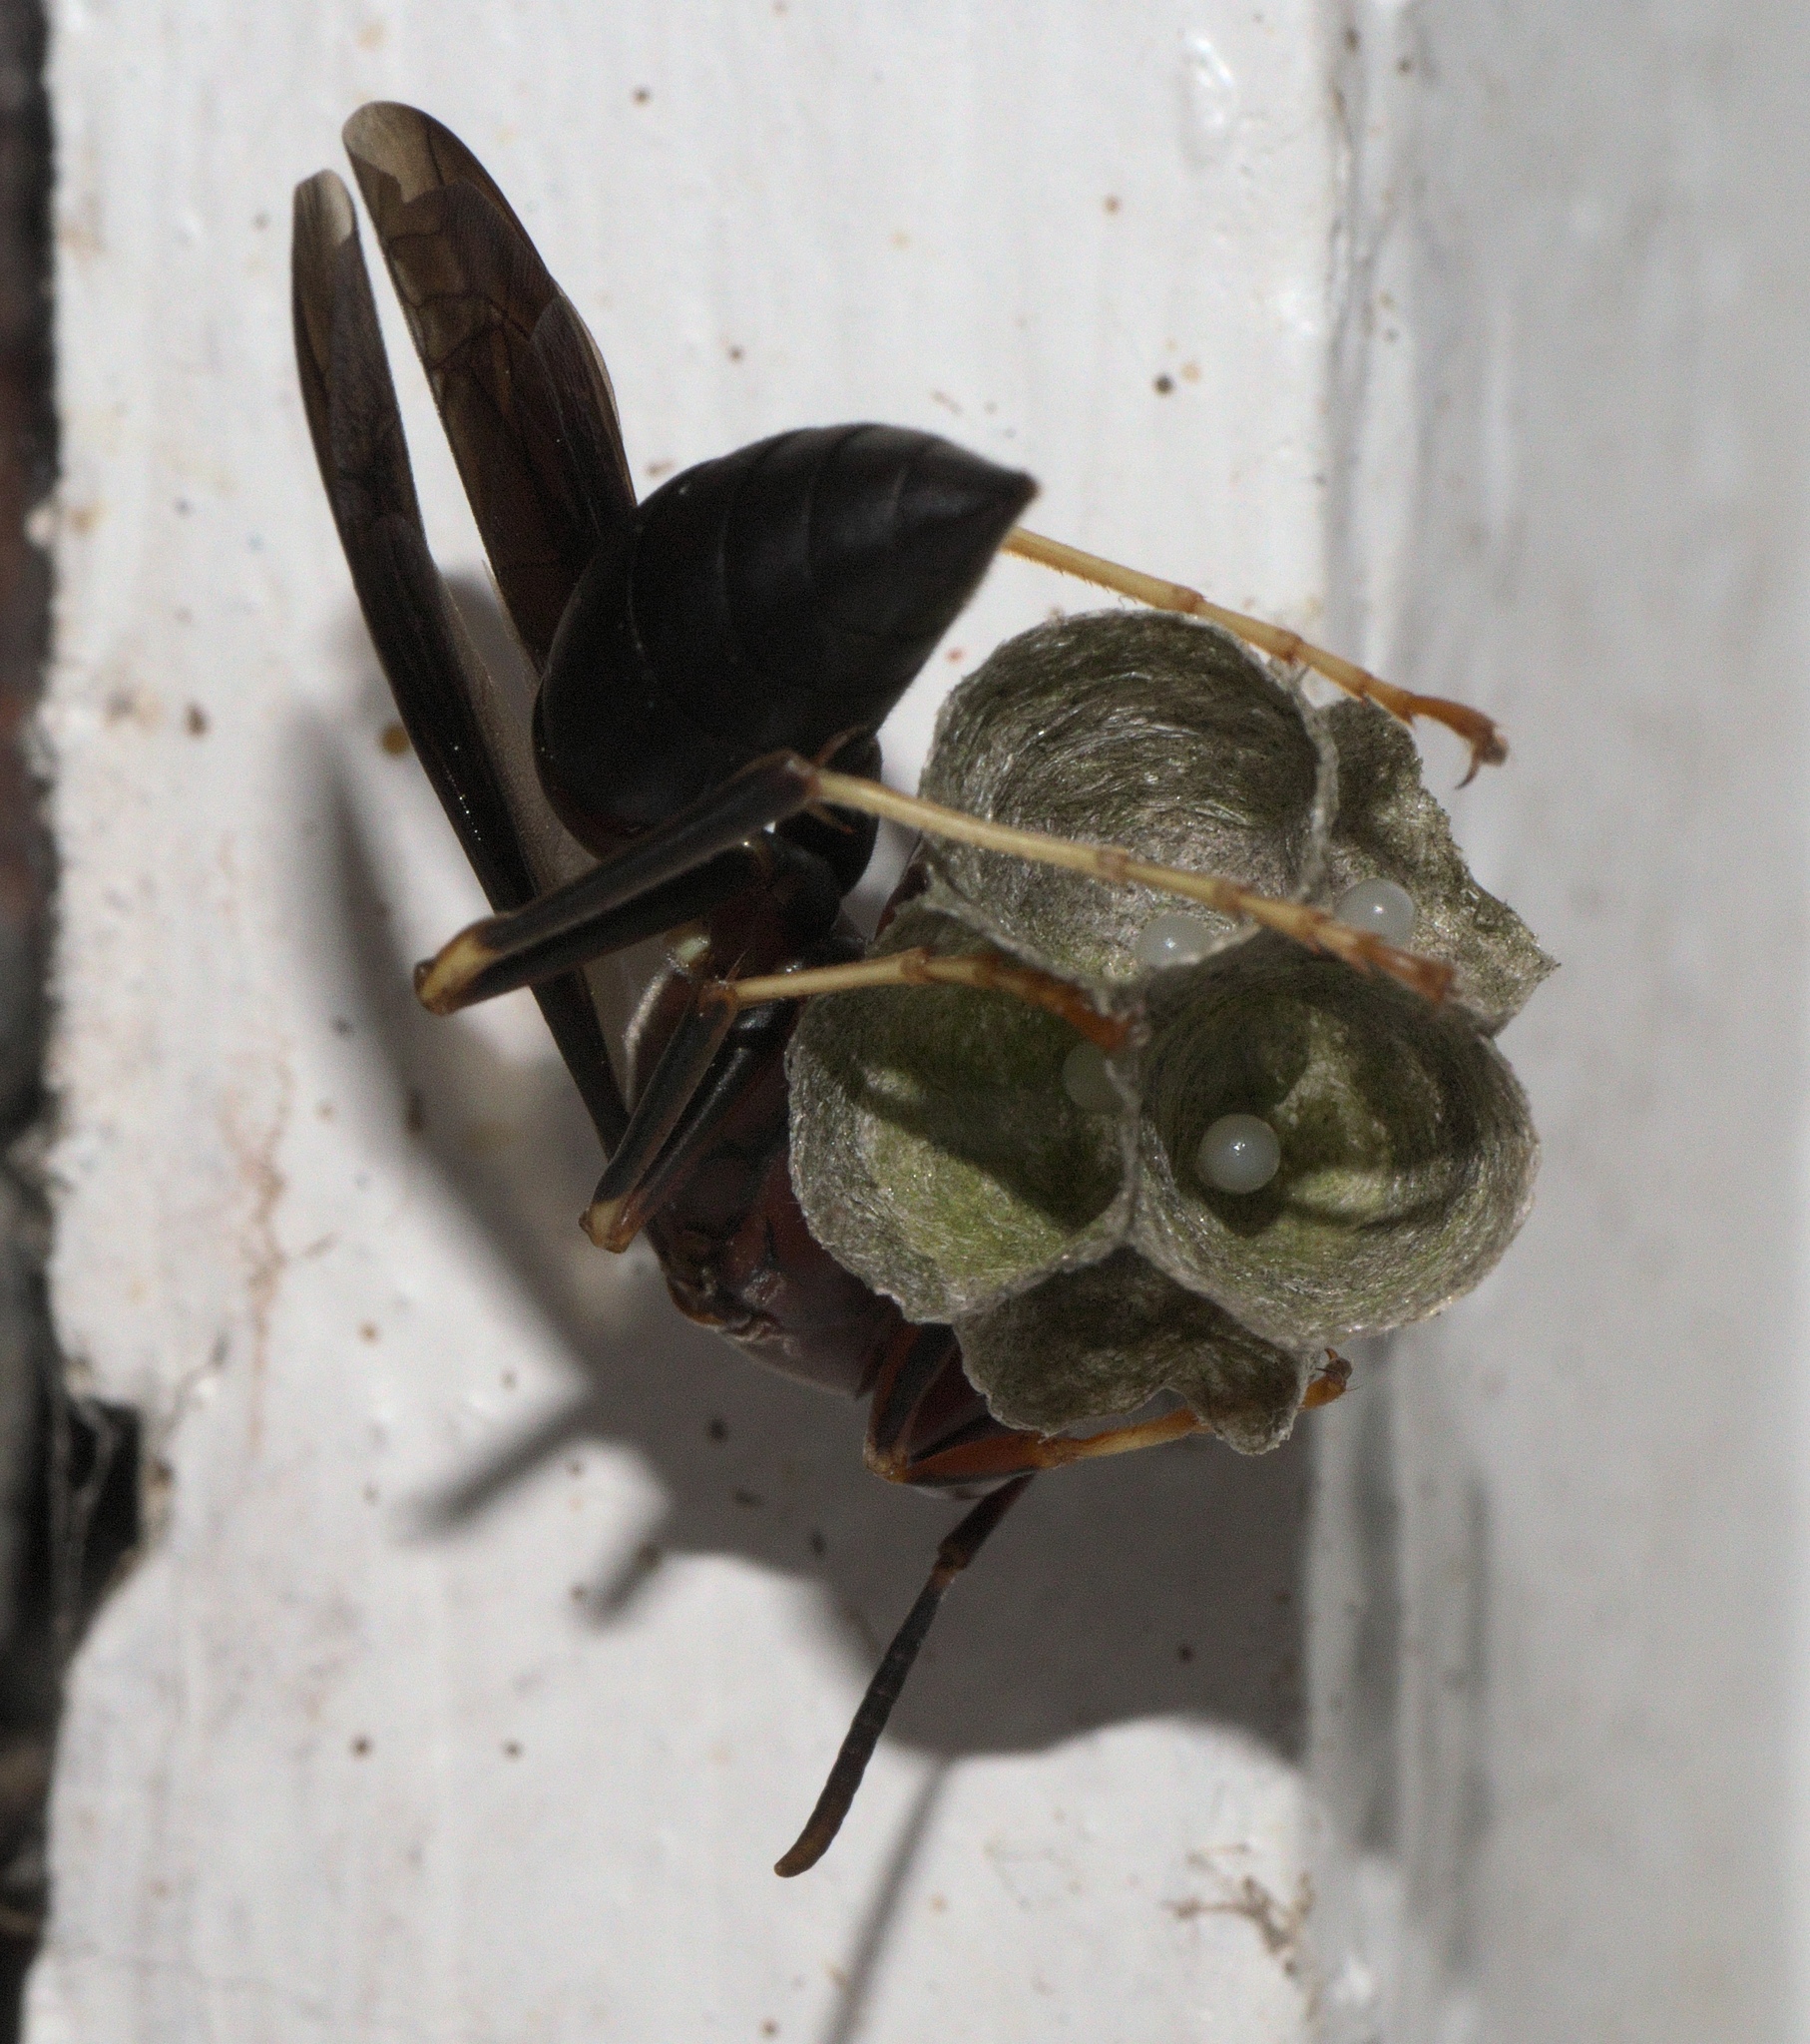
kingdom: Animalia
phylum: Arthropoda
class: Insecta
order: Hymenoptera
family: Eumenidae
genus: Polistes
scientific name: Polistes metricus
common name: Metric paper wasp
